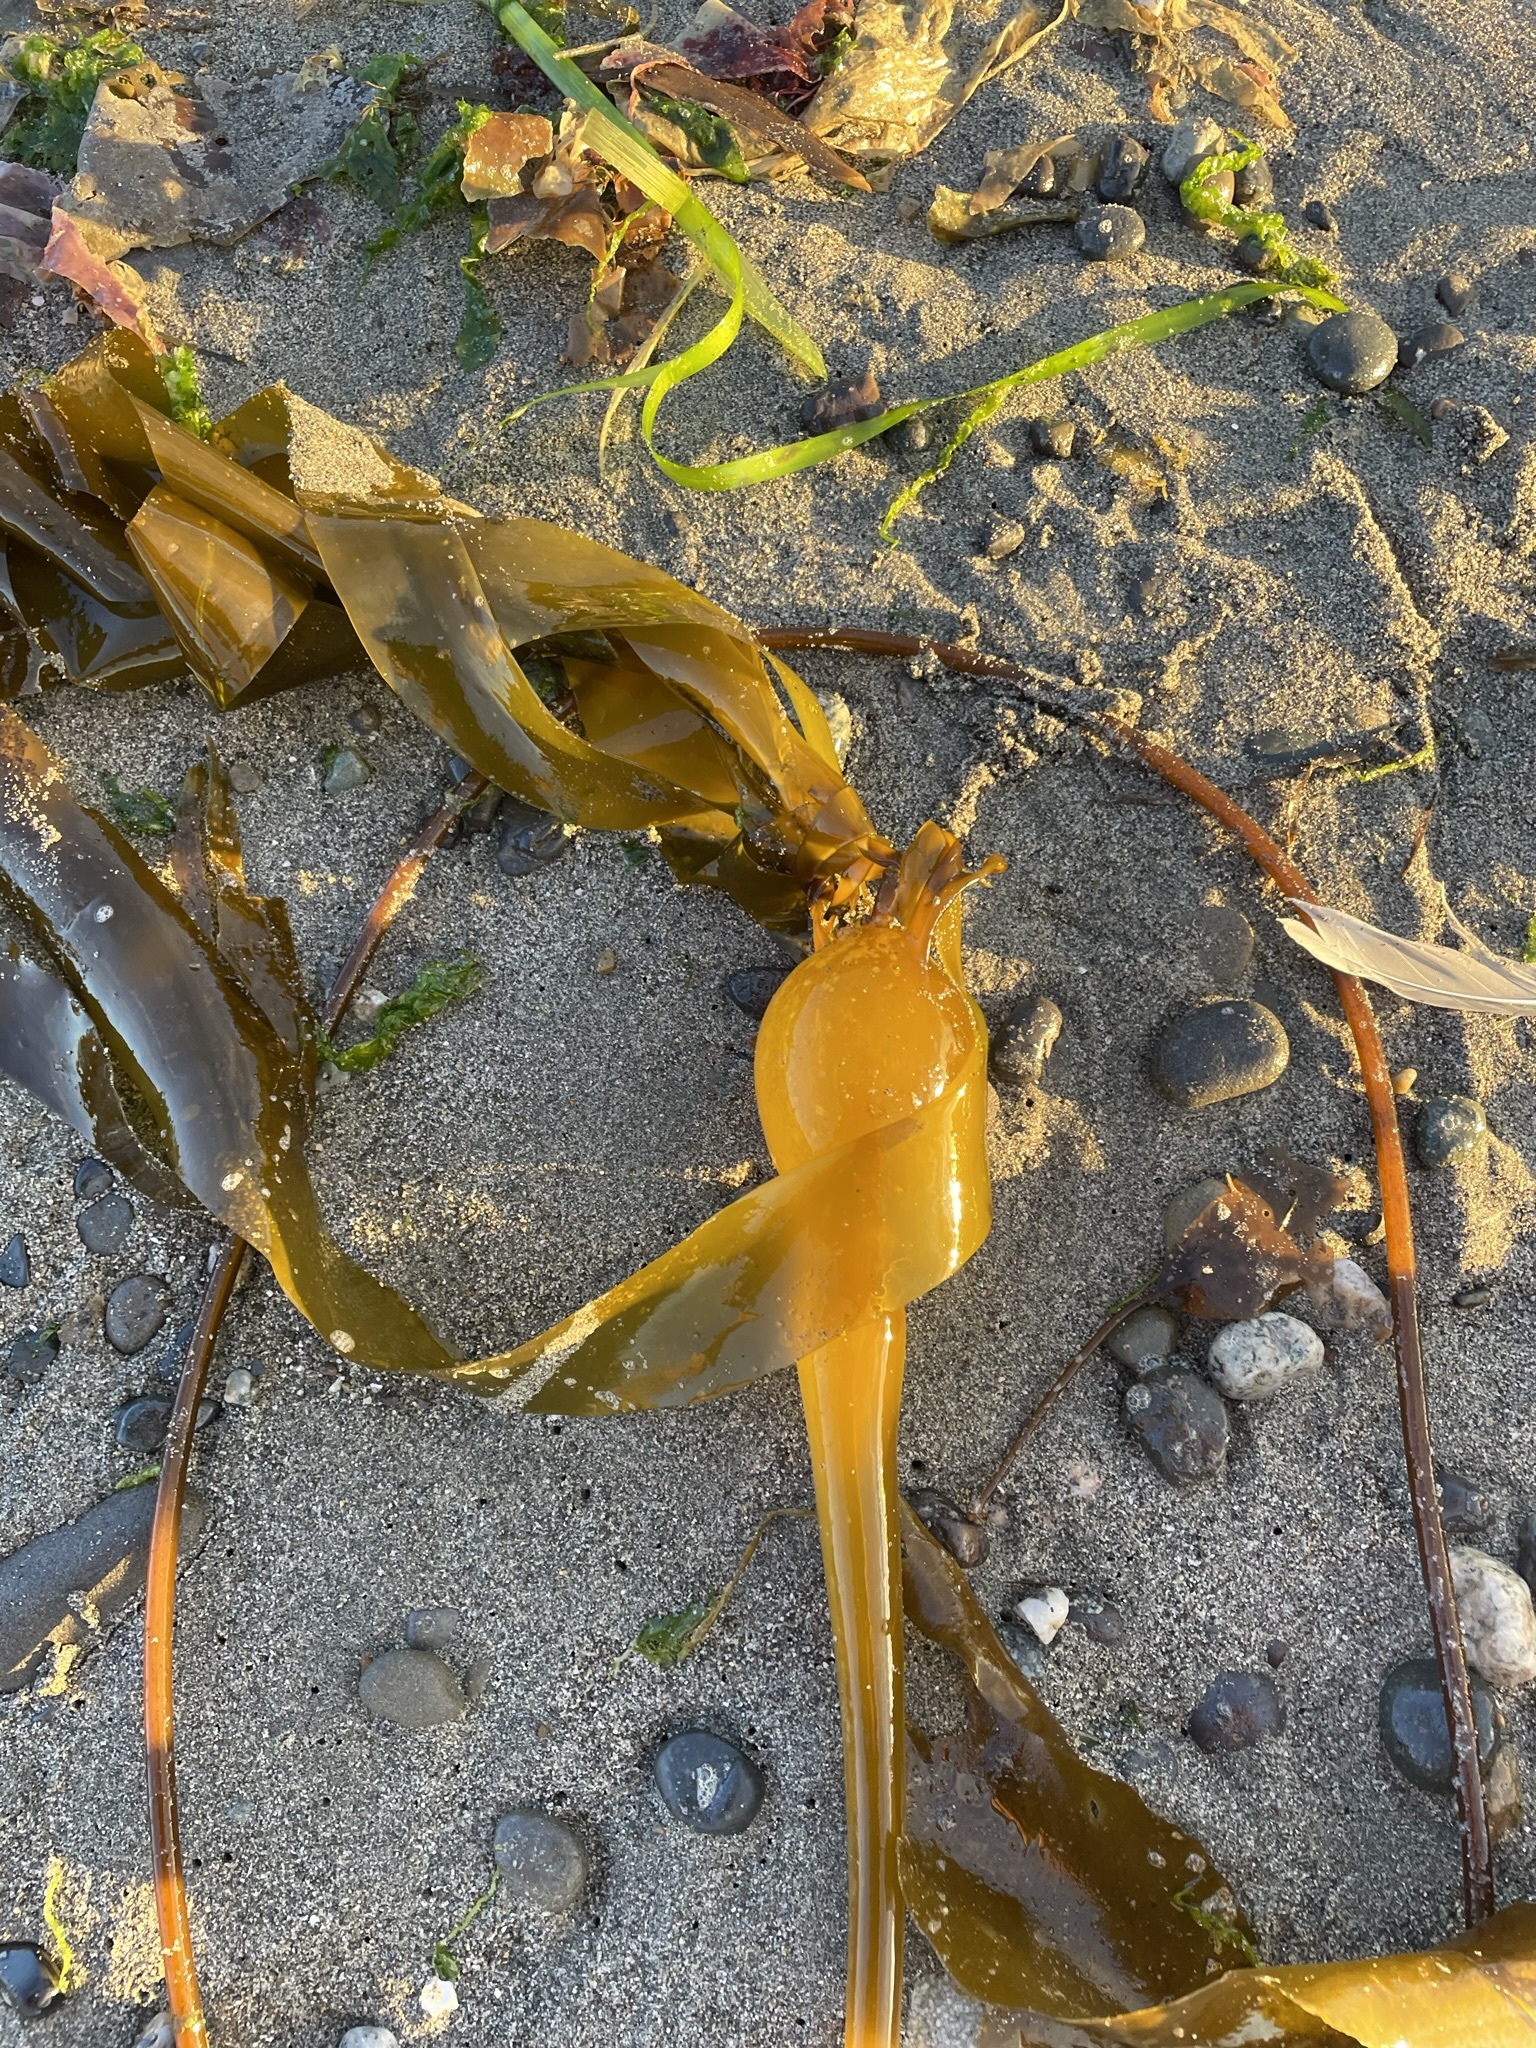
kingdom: Chromista
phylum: Ochrophyta
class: Phaeophyceae
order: Laminariales
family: Laminariaceae
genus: Nereocystis
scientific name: Nereocystis luetkeana
